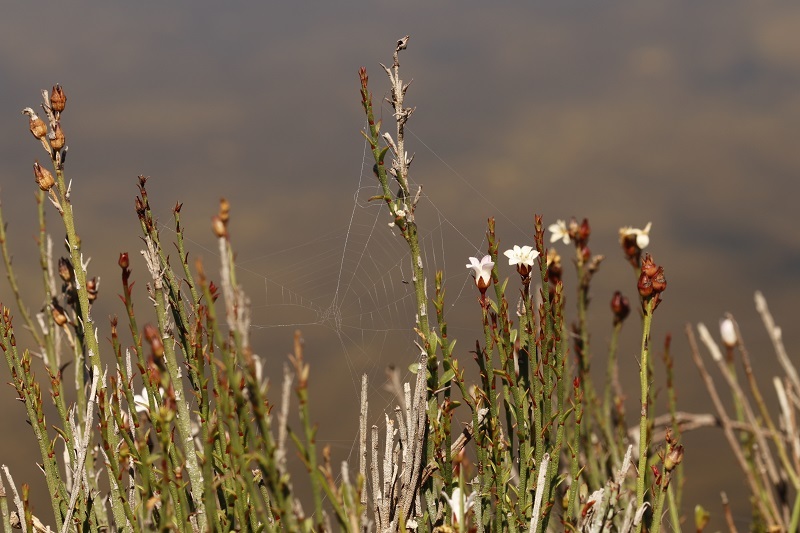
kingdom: Plantae
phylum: Tracheophyta
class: Magnoliopsida
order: Ericales
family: Primulaceae
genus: Samolus
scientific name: Samolus porosus
